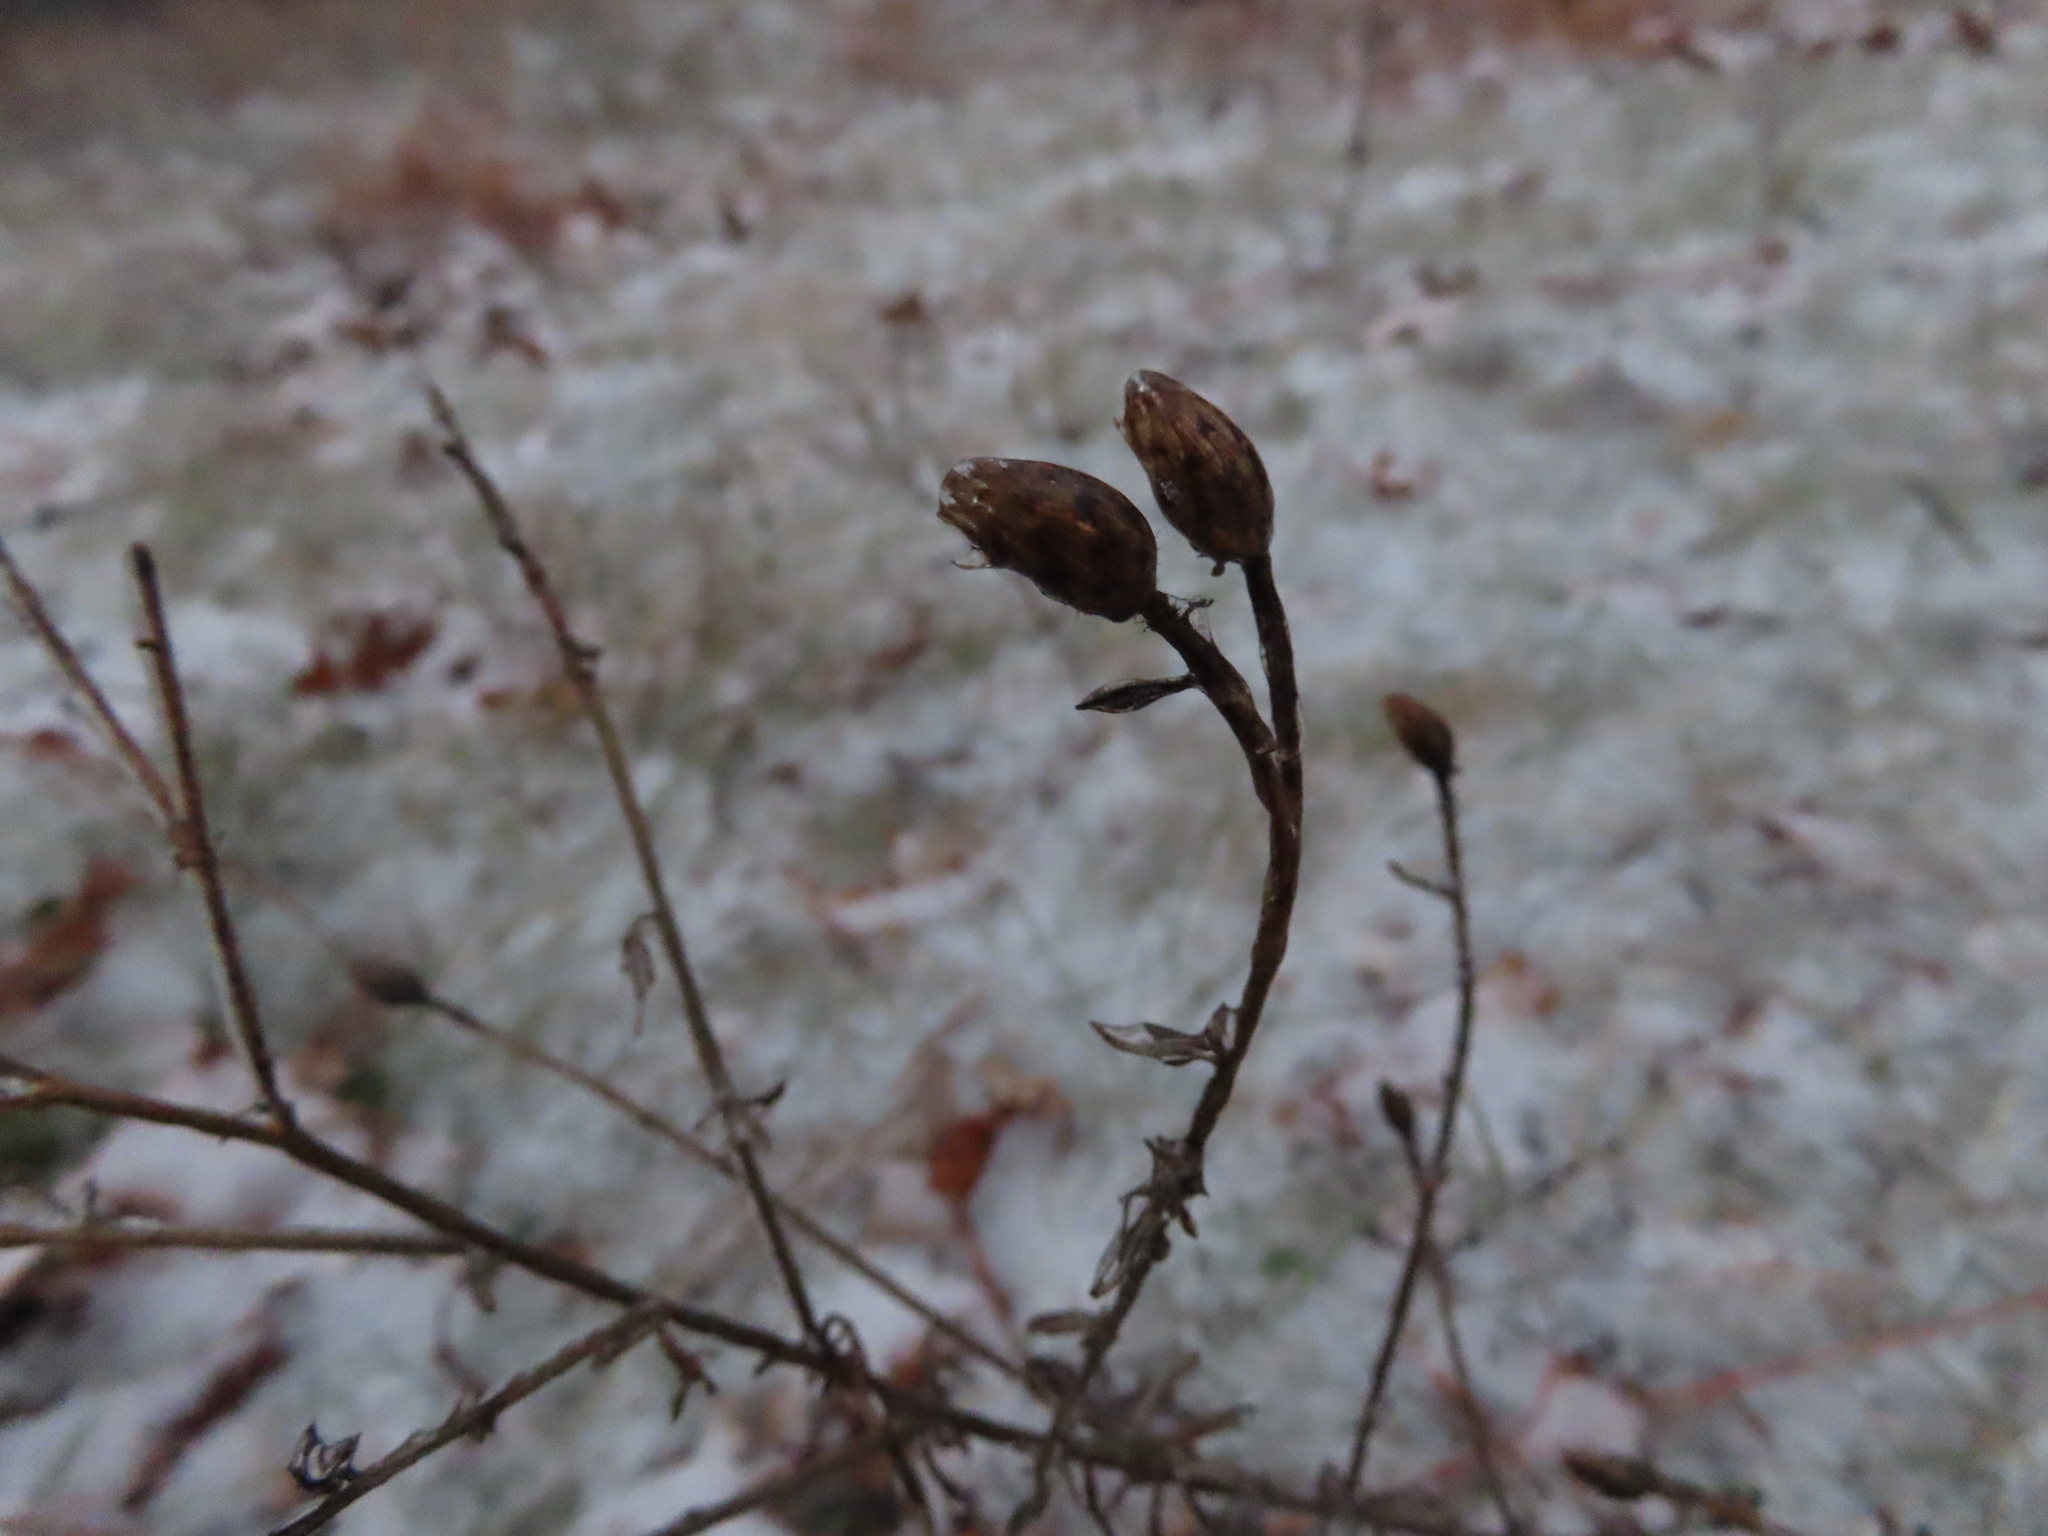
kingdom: Plantae
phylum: Tracheophyta
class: Magnoliopsida
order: Asterales
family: Asteraceae
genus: Centaurea
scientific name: Centaurea stoebe
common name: Spotted knapweed
